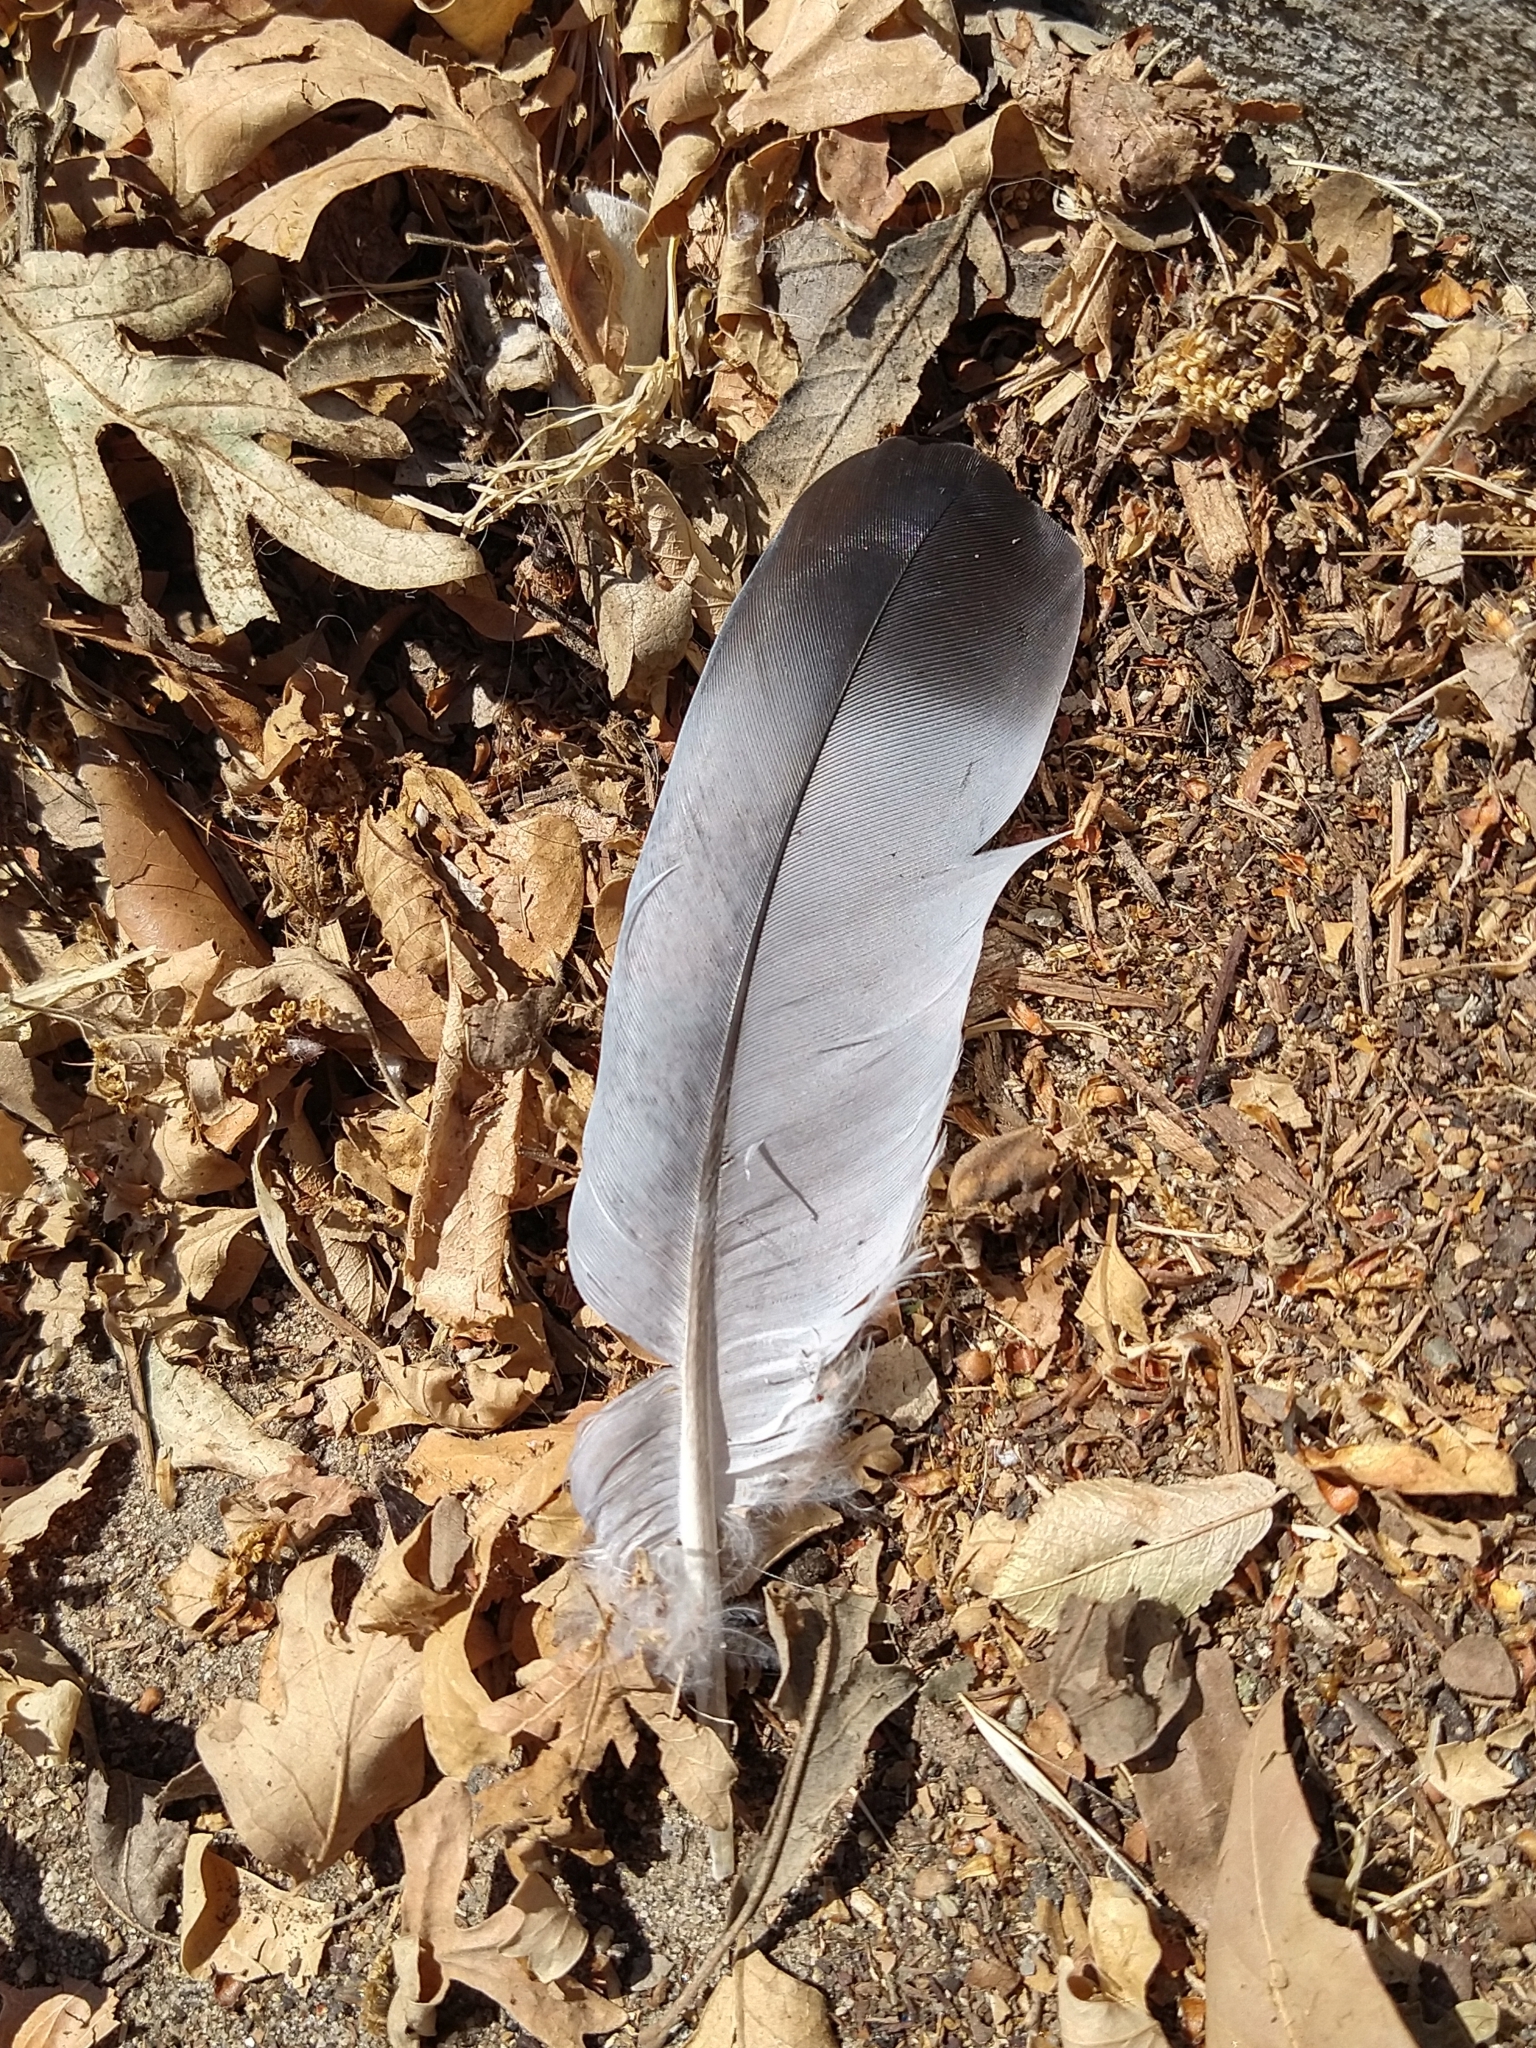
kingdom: Animalia
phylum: Chordata
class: Aves
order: Columbiformes
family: Columbidae
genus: Columba
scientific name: Columba livia
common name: Rock pigeon
